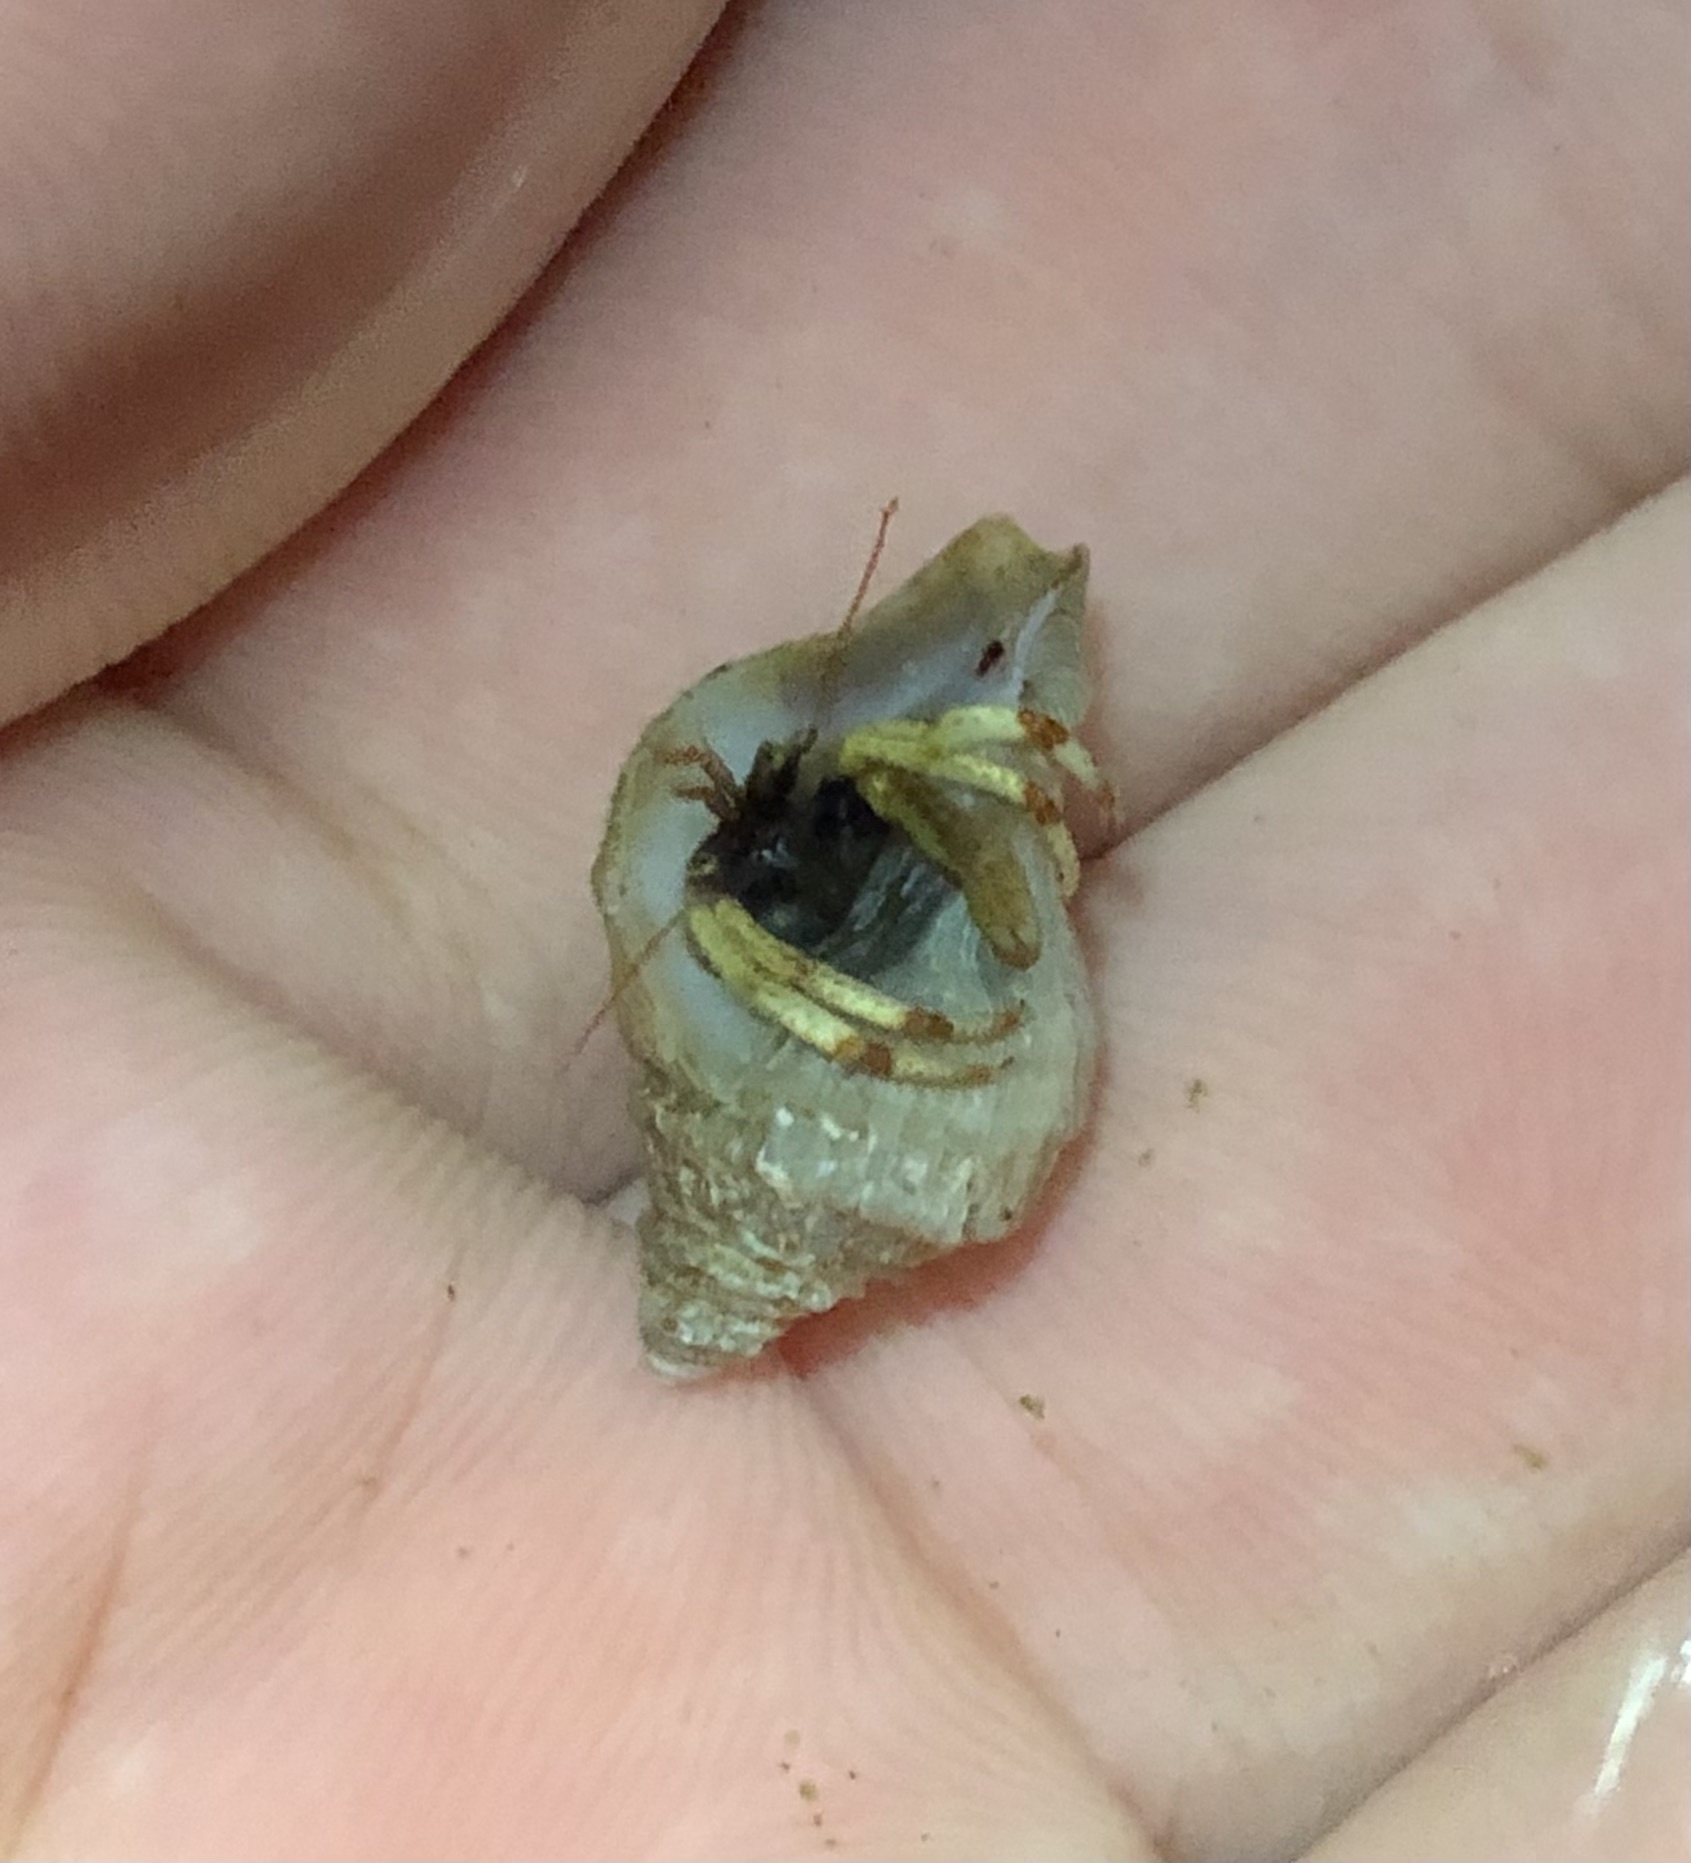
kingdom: Animalia
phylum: Arthropoda
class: Malacostraca
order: Decapoda
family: Paguridae
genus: Pagurus
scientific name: Pagurus beringanus
